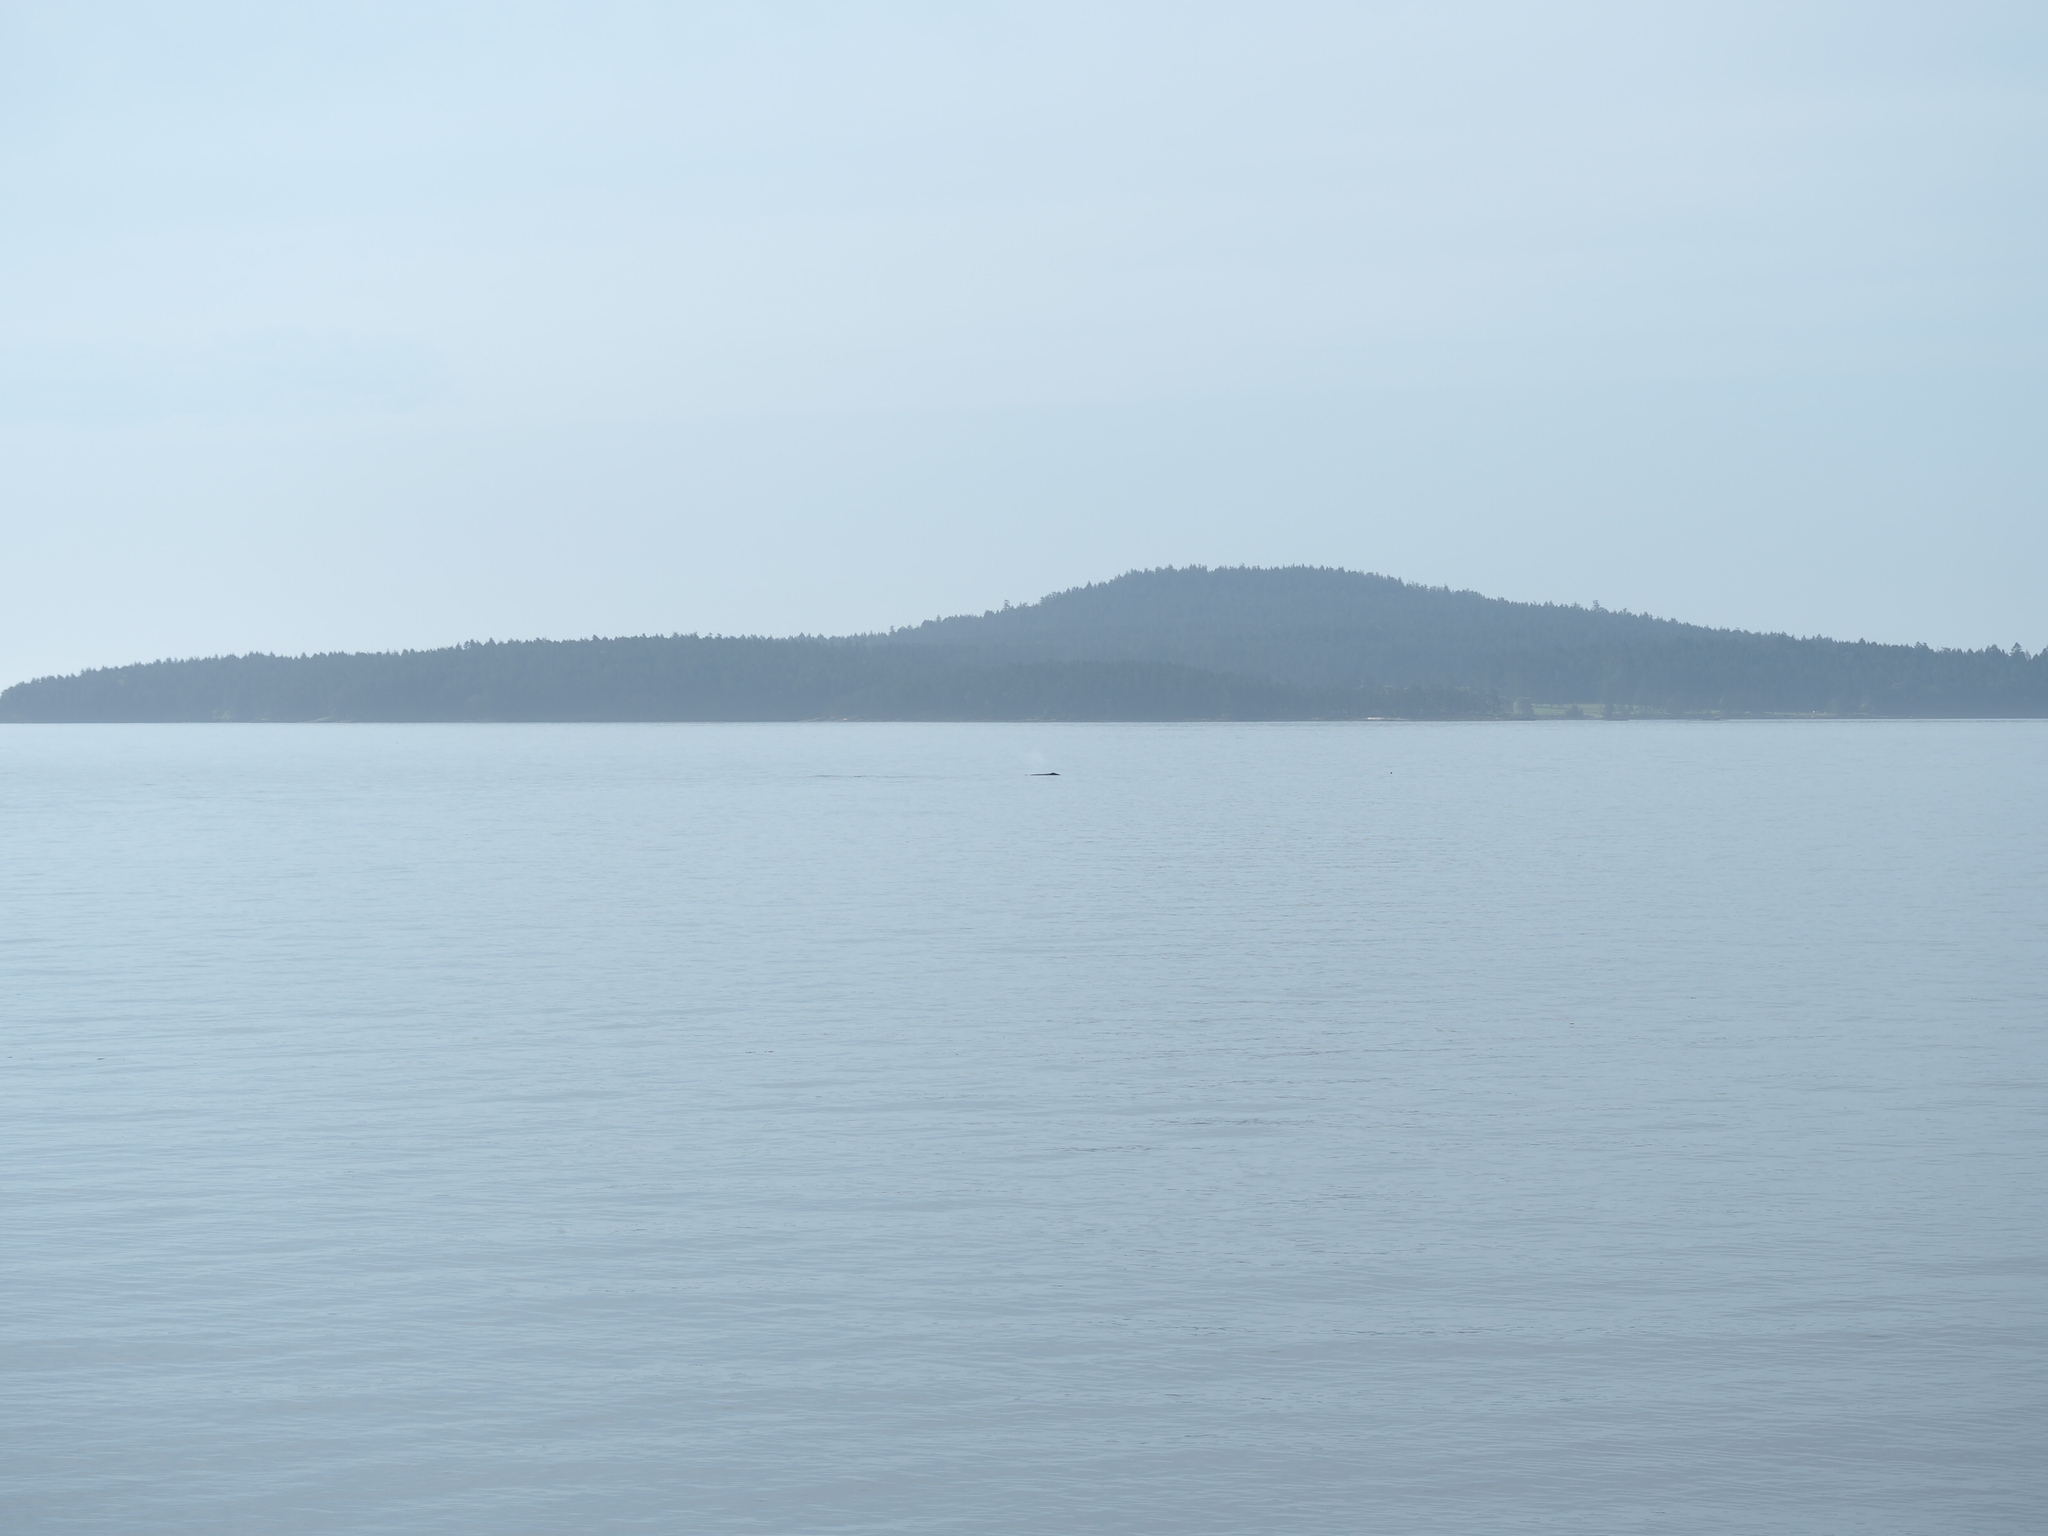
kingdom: Animalia
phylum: Chordata
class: Mammalia
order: Cetacea
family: Balaenopteridae
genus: Megaptera
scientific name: Megaptera novaeangliae
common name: Humpback whale
